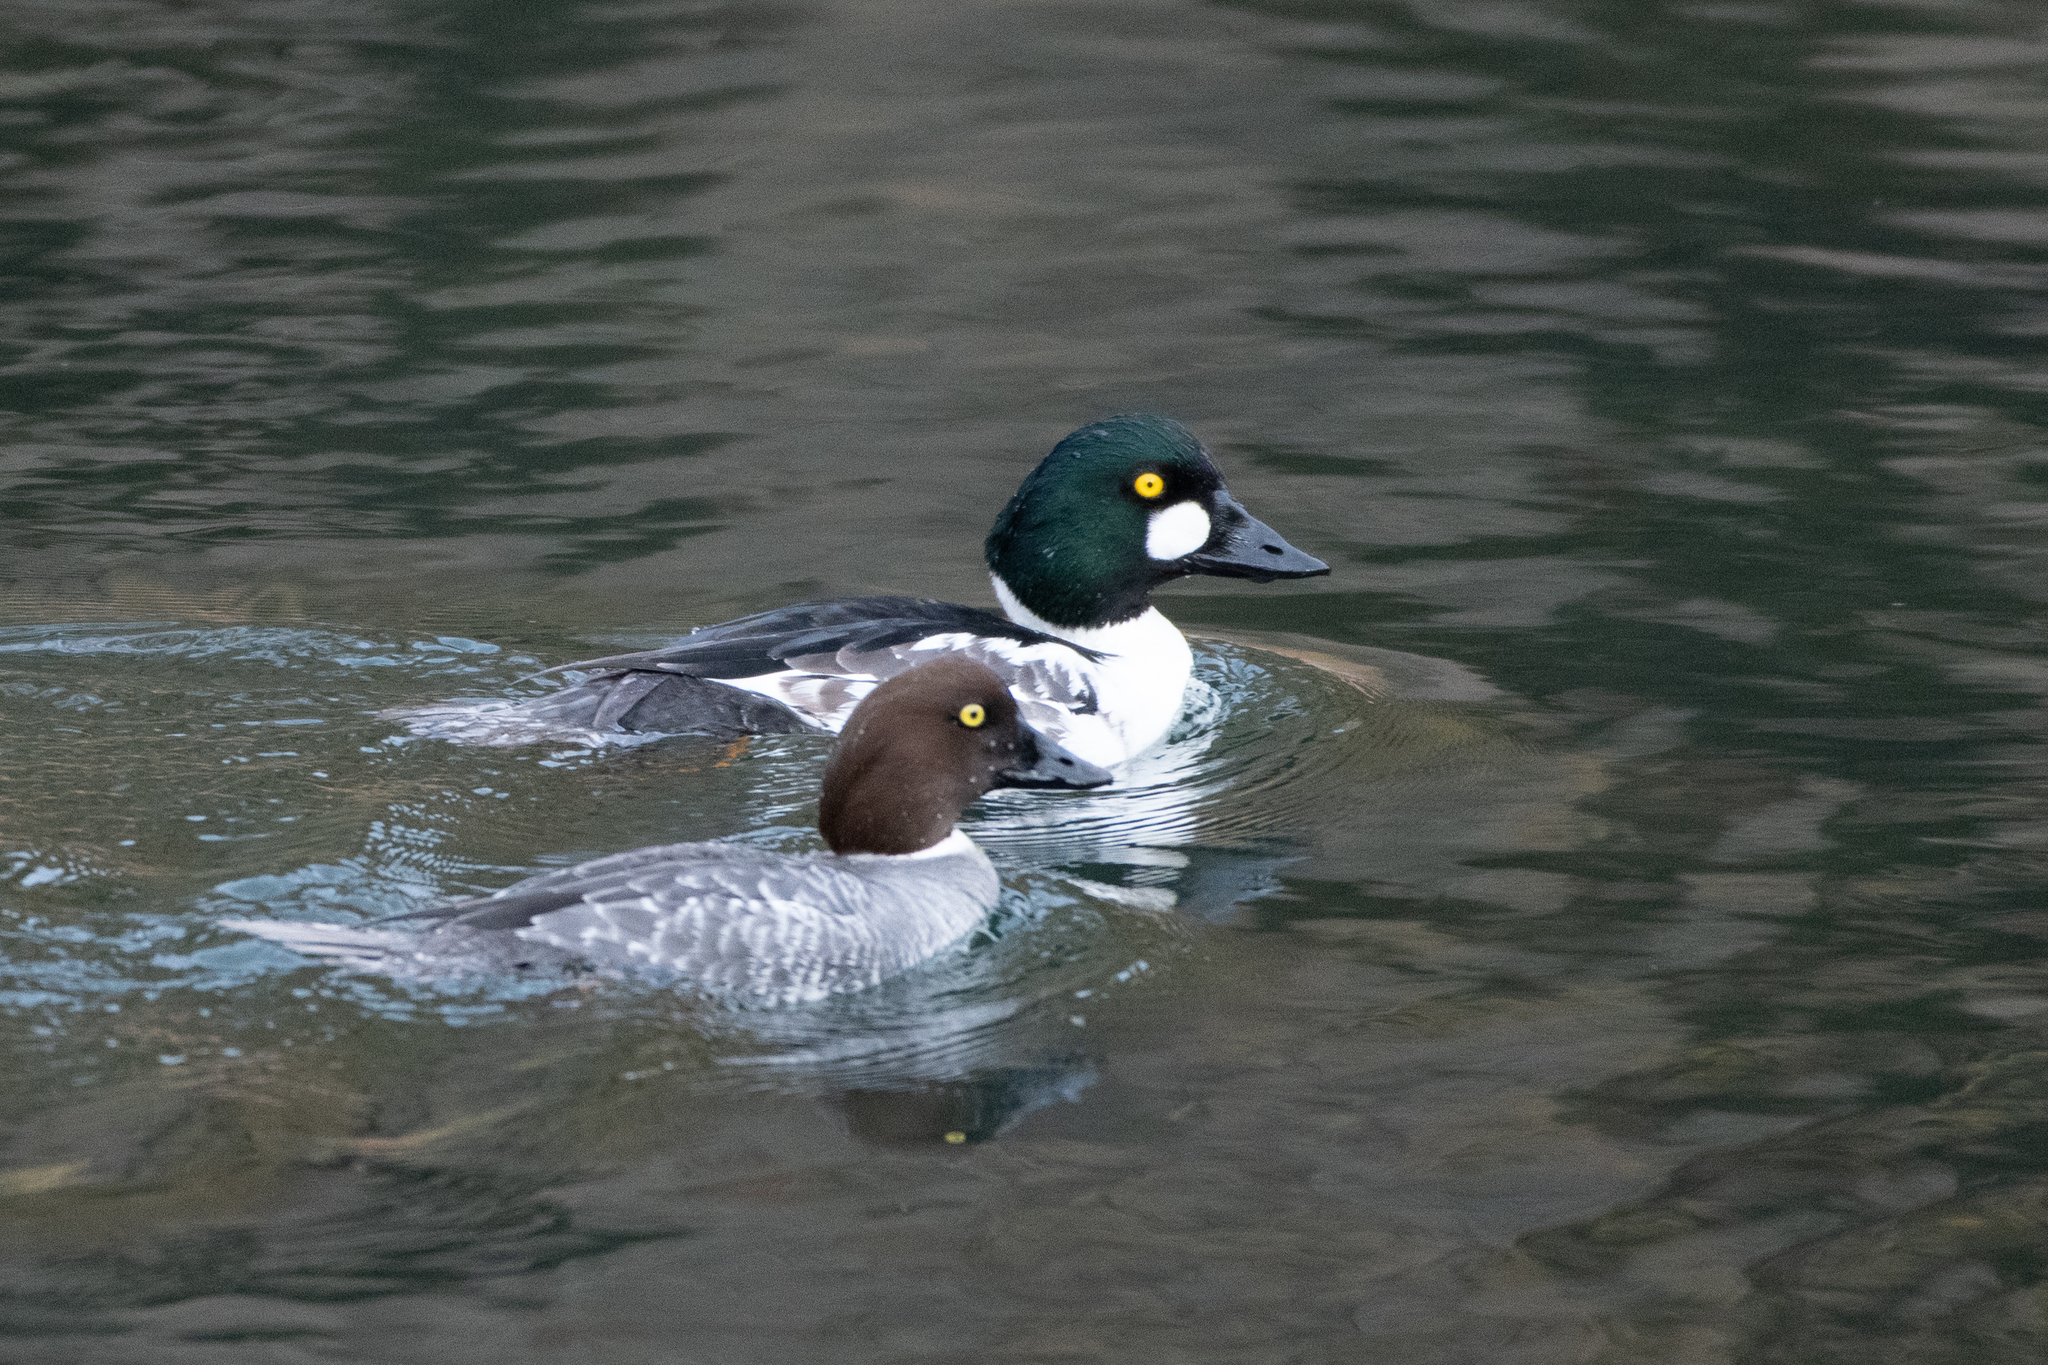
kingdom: Animalia
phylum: Chordata
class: Aves
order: Anseriformes
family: Anatidae
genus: Bucephala
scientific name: Bucephala clangula
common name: Common goldeneye
